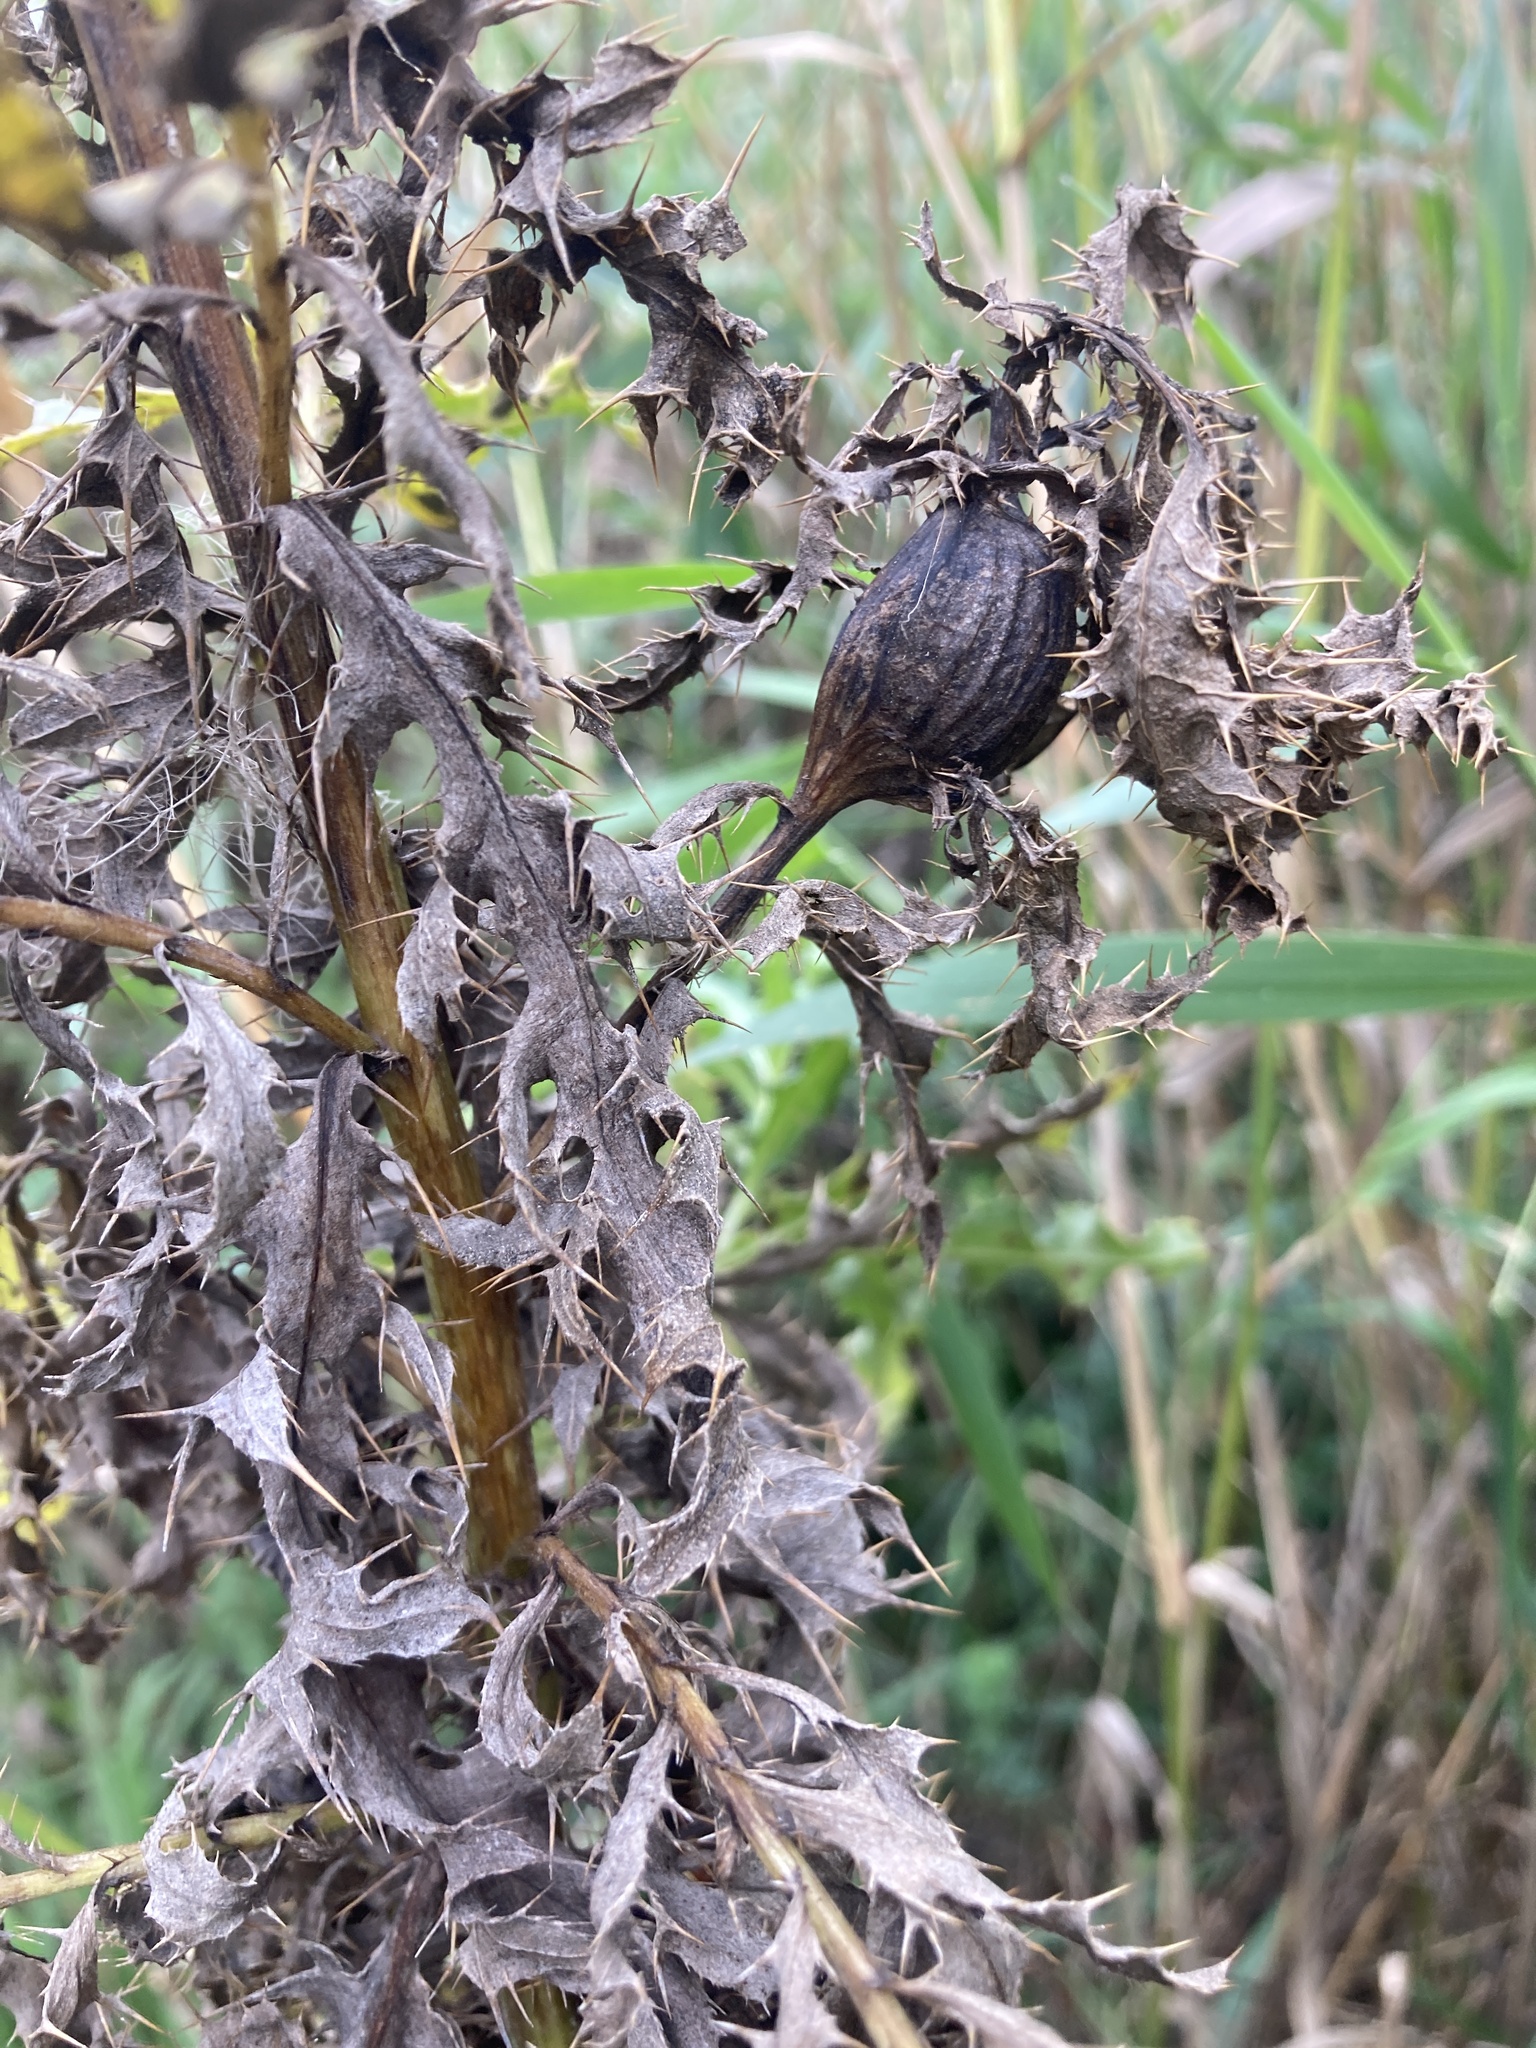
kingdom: Animalia
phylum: Arthropoda
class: Insecta
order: Diptera
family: Tephritidae
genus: Urophora
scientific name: Urophora cardui
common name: Fruit fly
